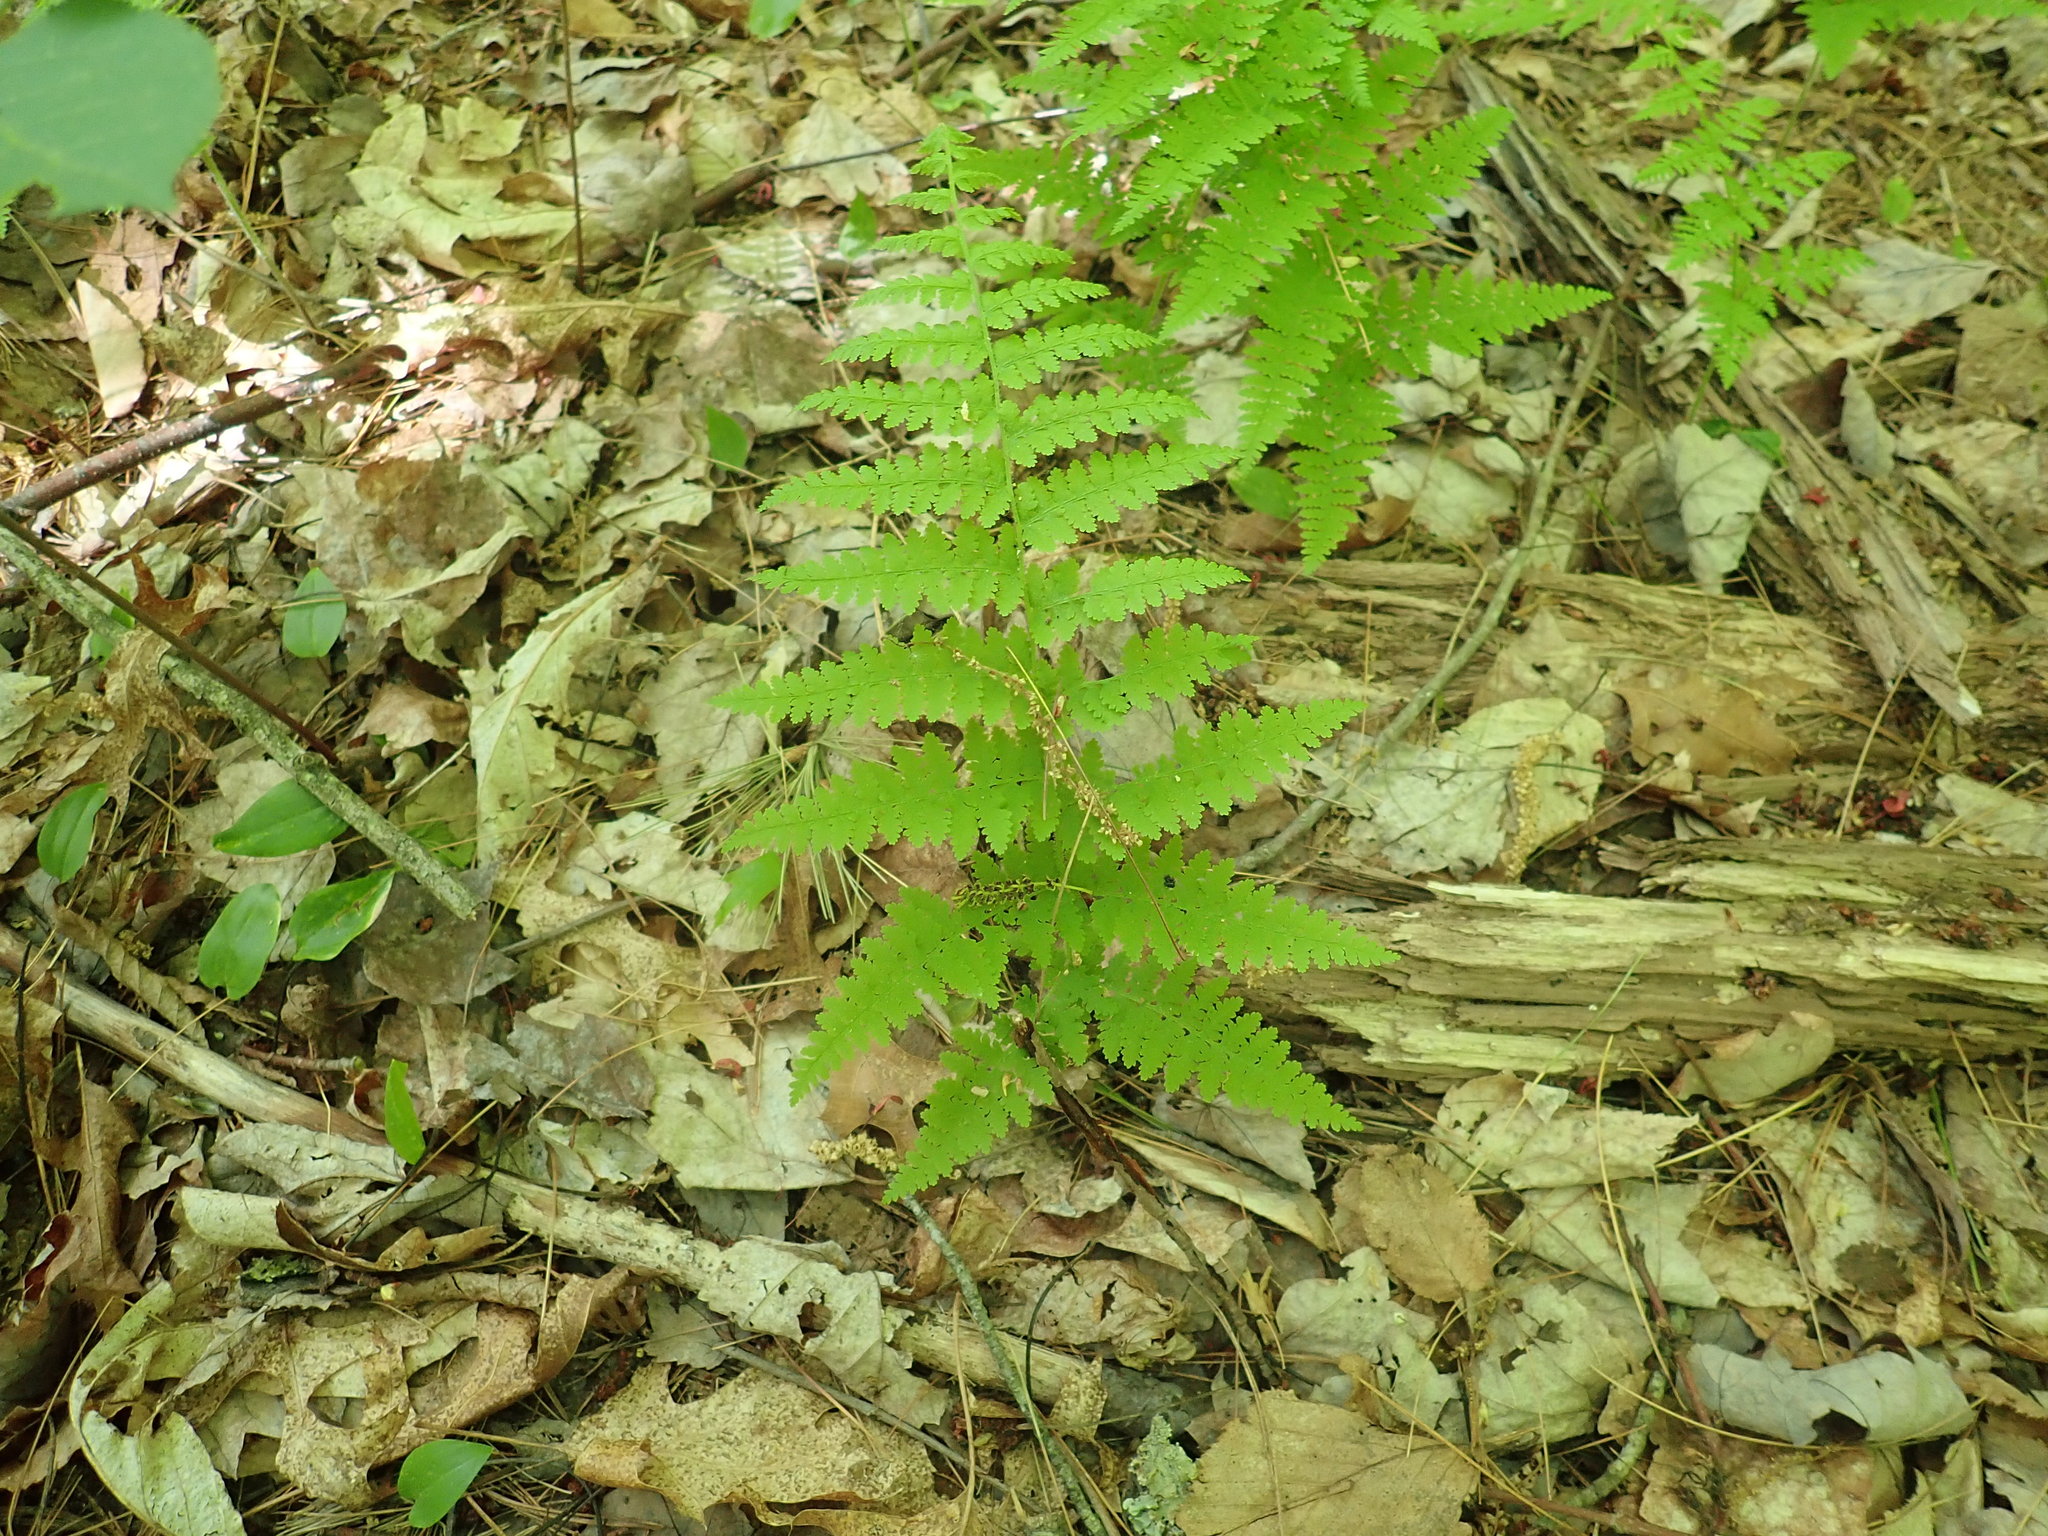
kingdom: Plantae
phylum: Tracheophyta
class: Polypodiopsida
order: Polypodiales
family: Dennstaedtiaceae
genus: Sitobolium
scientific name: Sitobolium punctilobum
